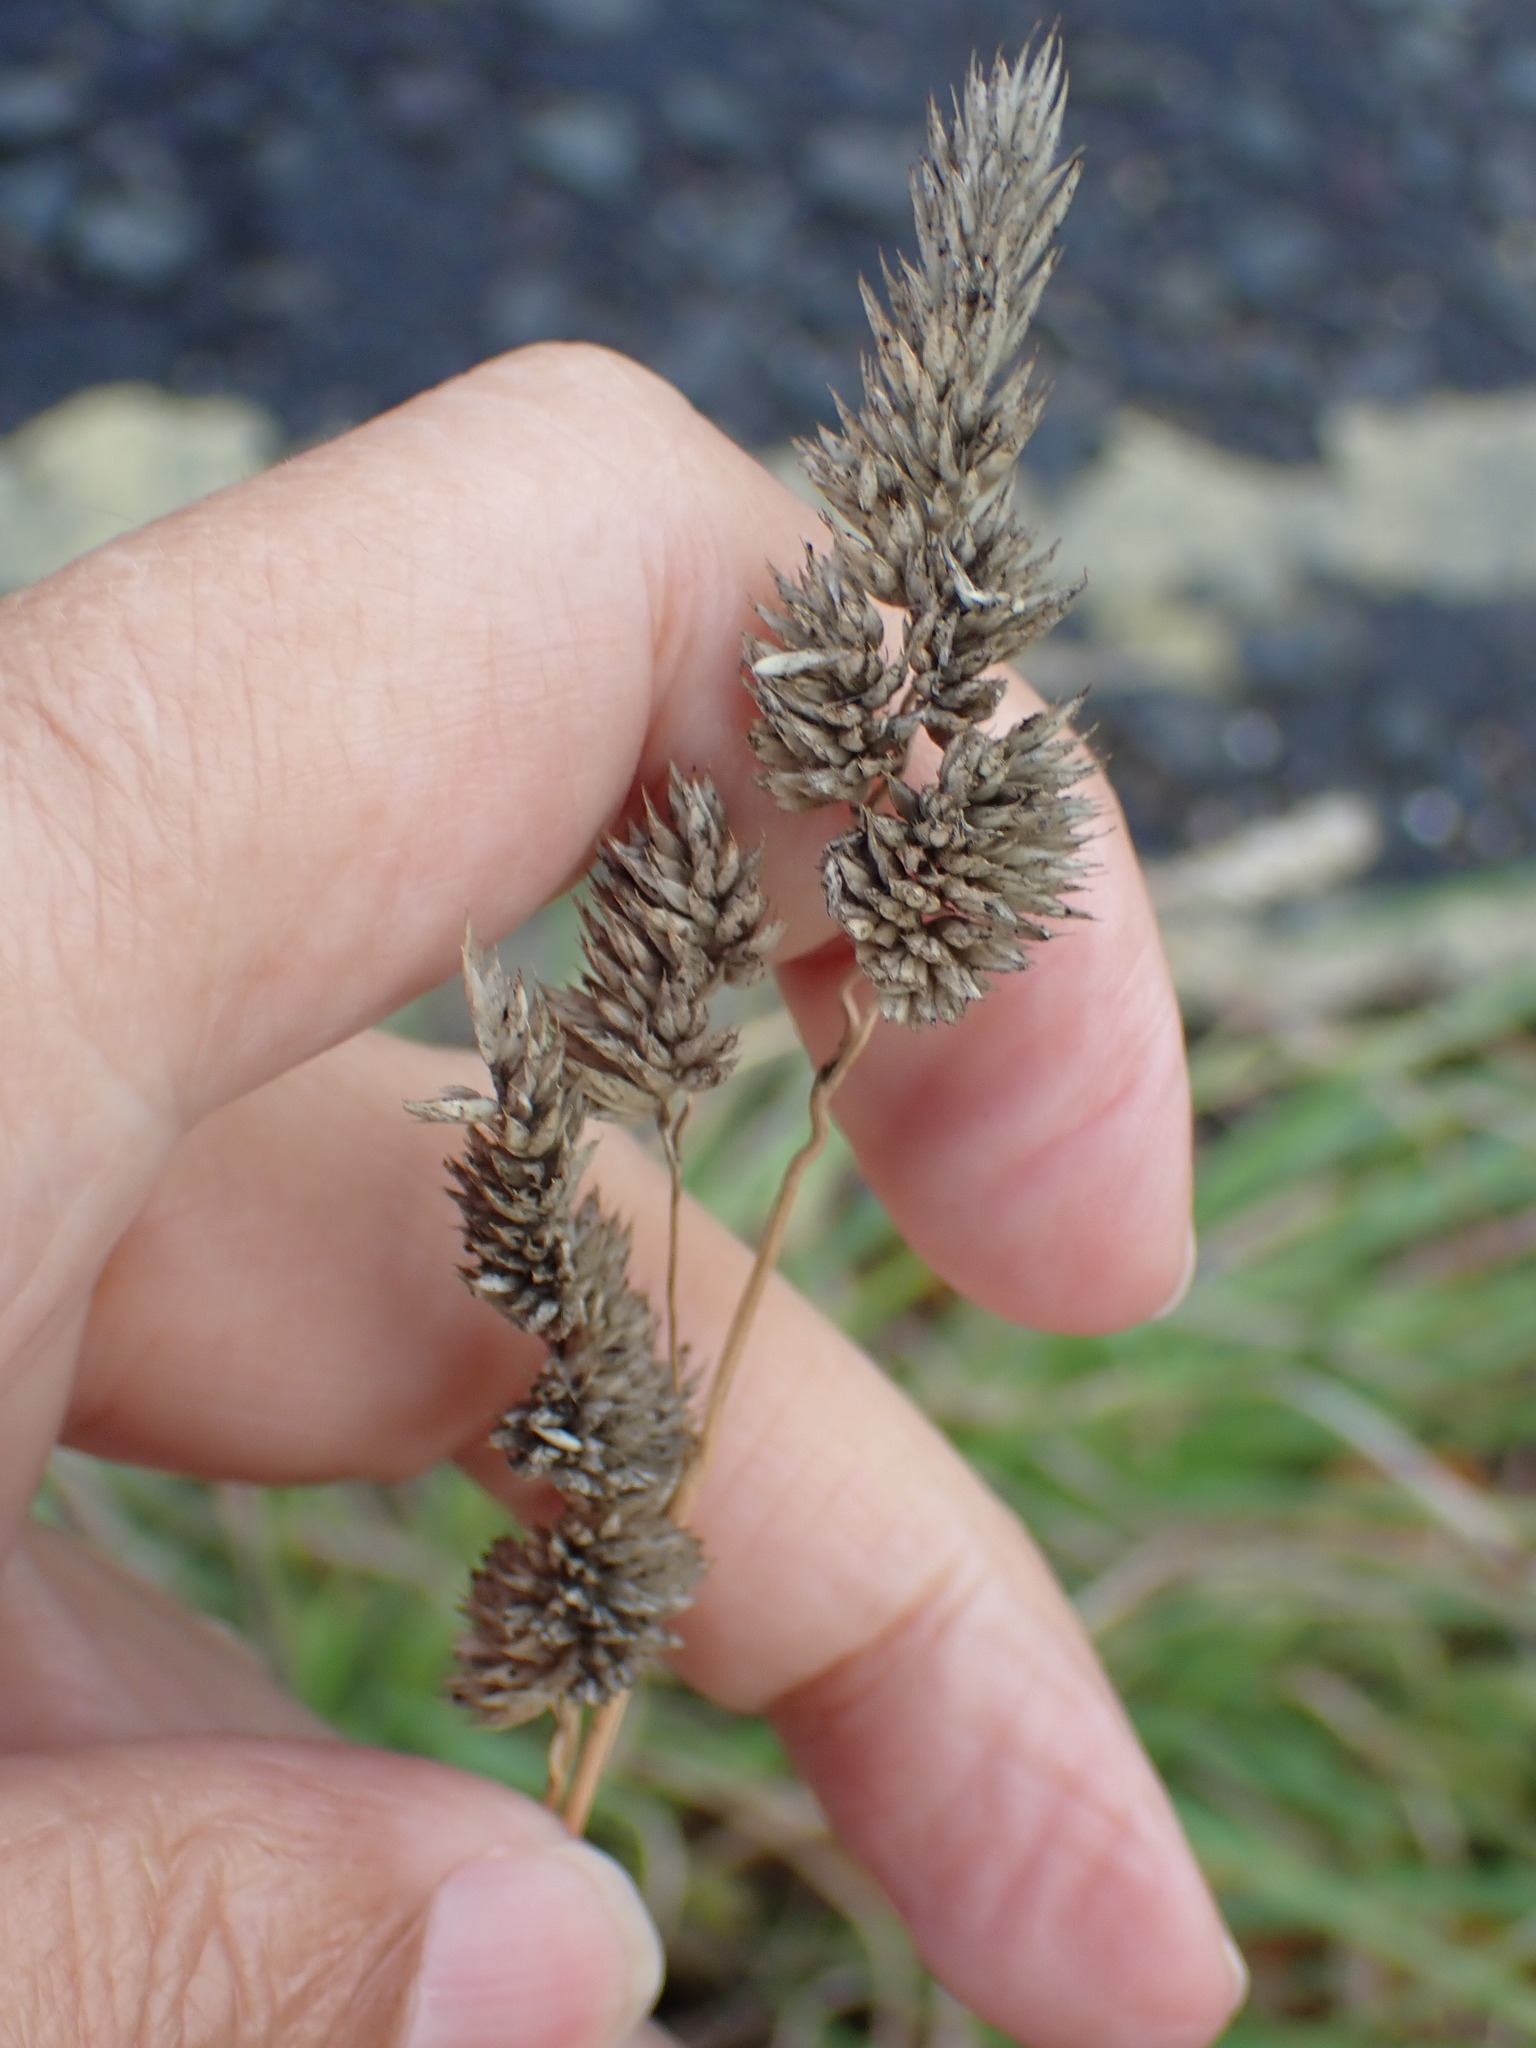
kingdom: Plantae
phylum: Tracheophyta
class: Liliopsida
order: Poales
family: Poaceae
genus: Dactylis
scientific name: Dactylis glomerata
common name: Orchardgrass
